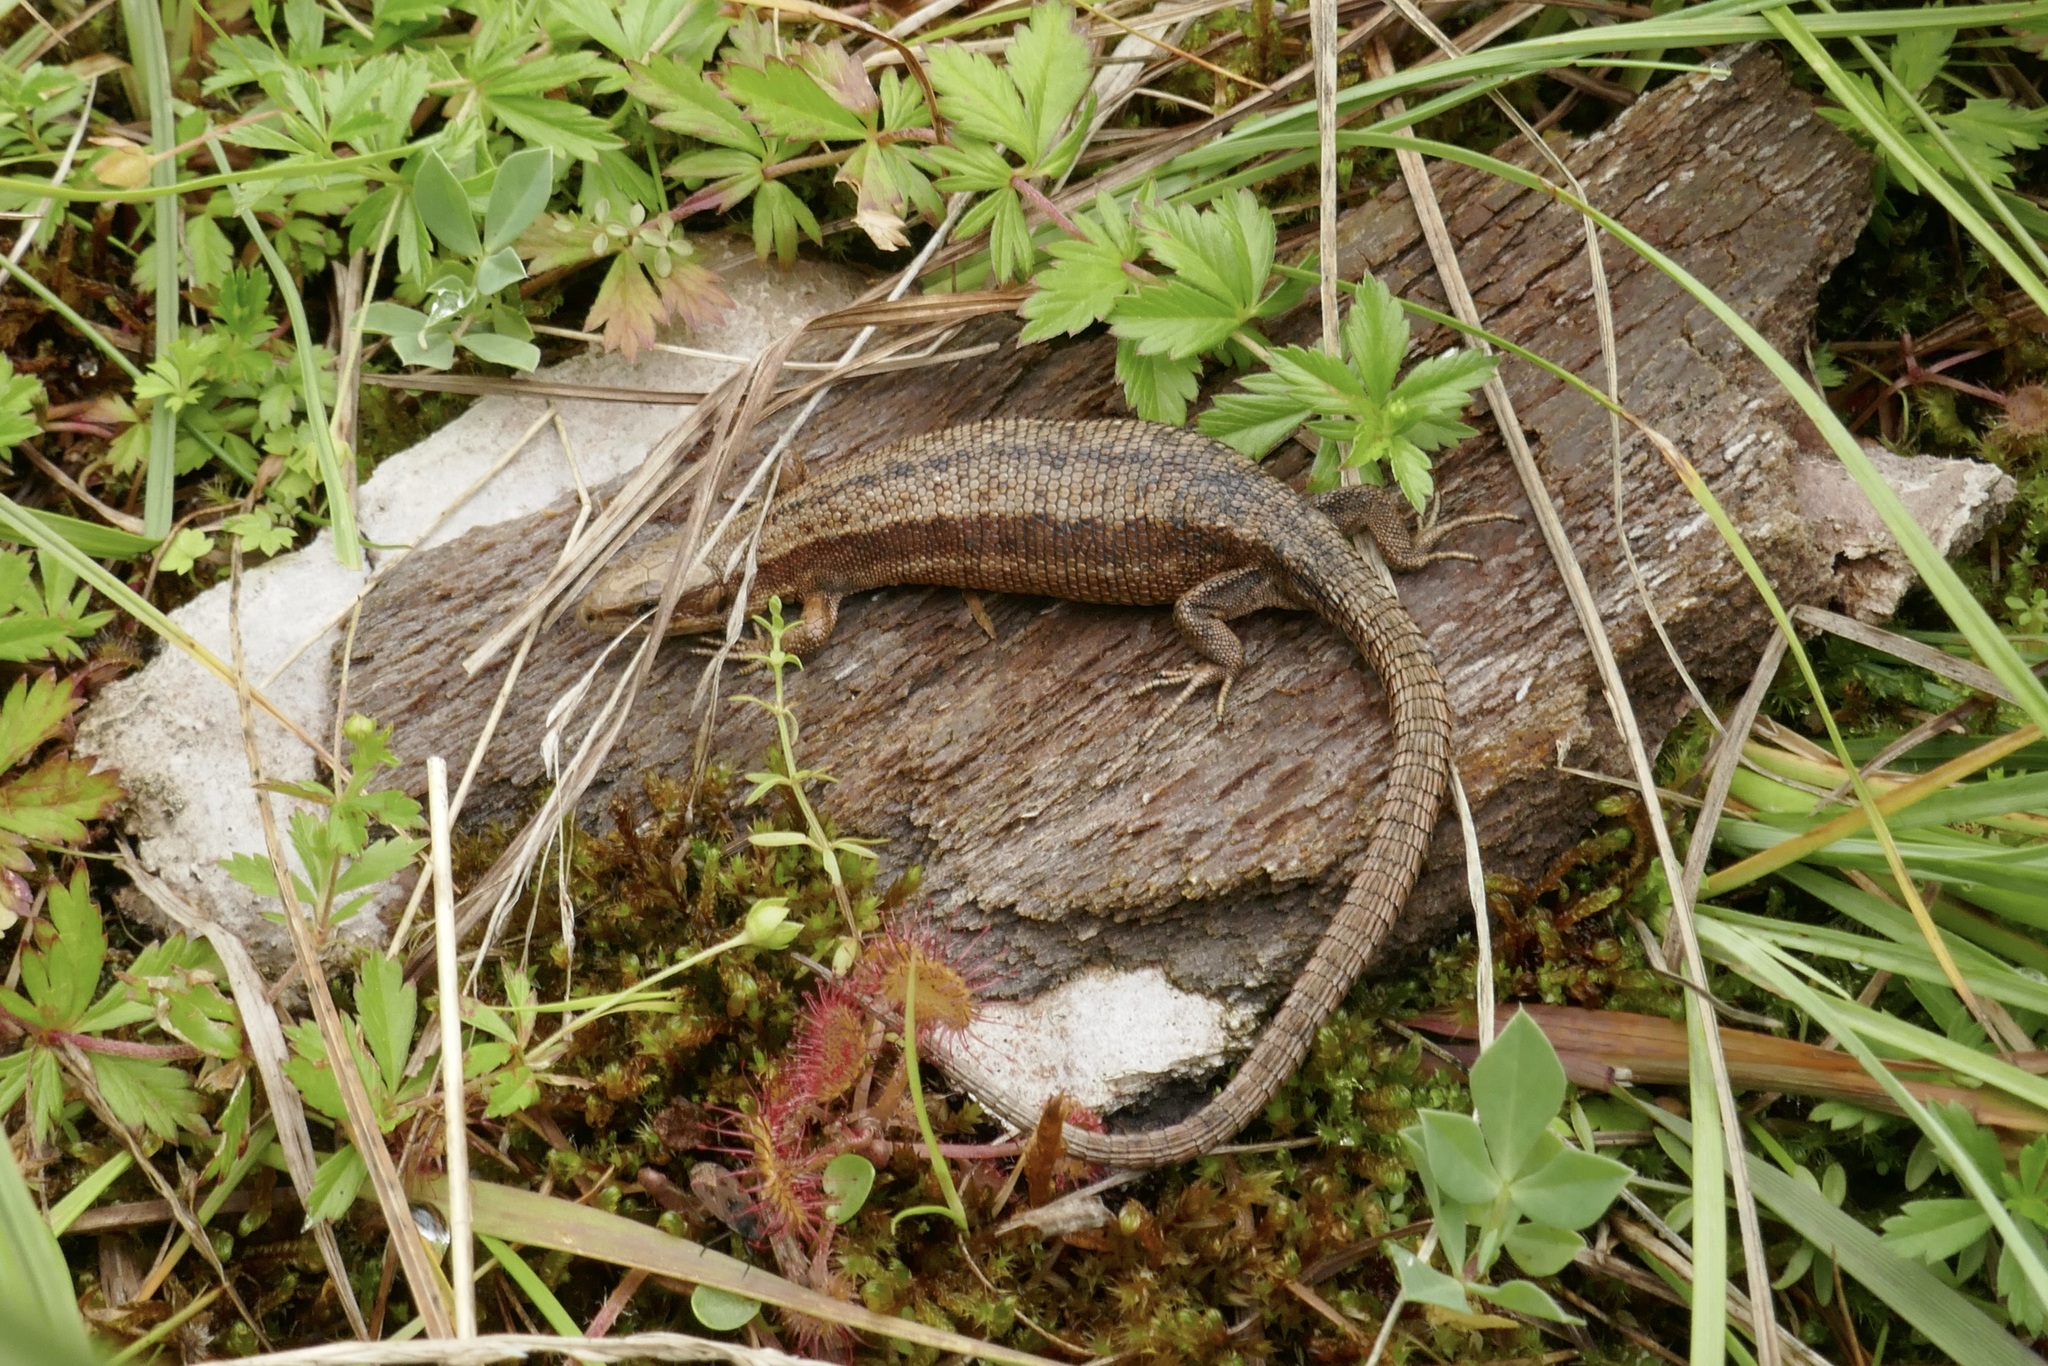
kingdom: Animalia
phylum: Chordata
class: Squamata
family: Lacertidae
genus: Zootoca
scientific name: Zootoca vivipara
